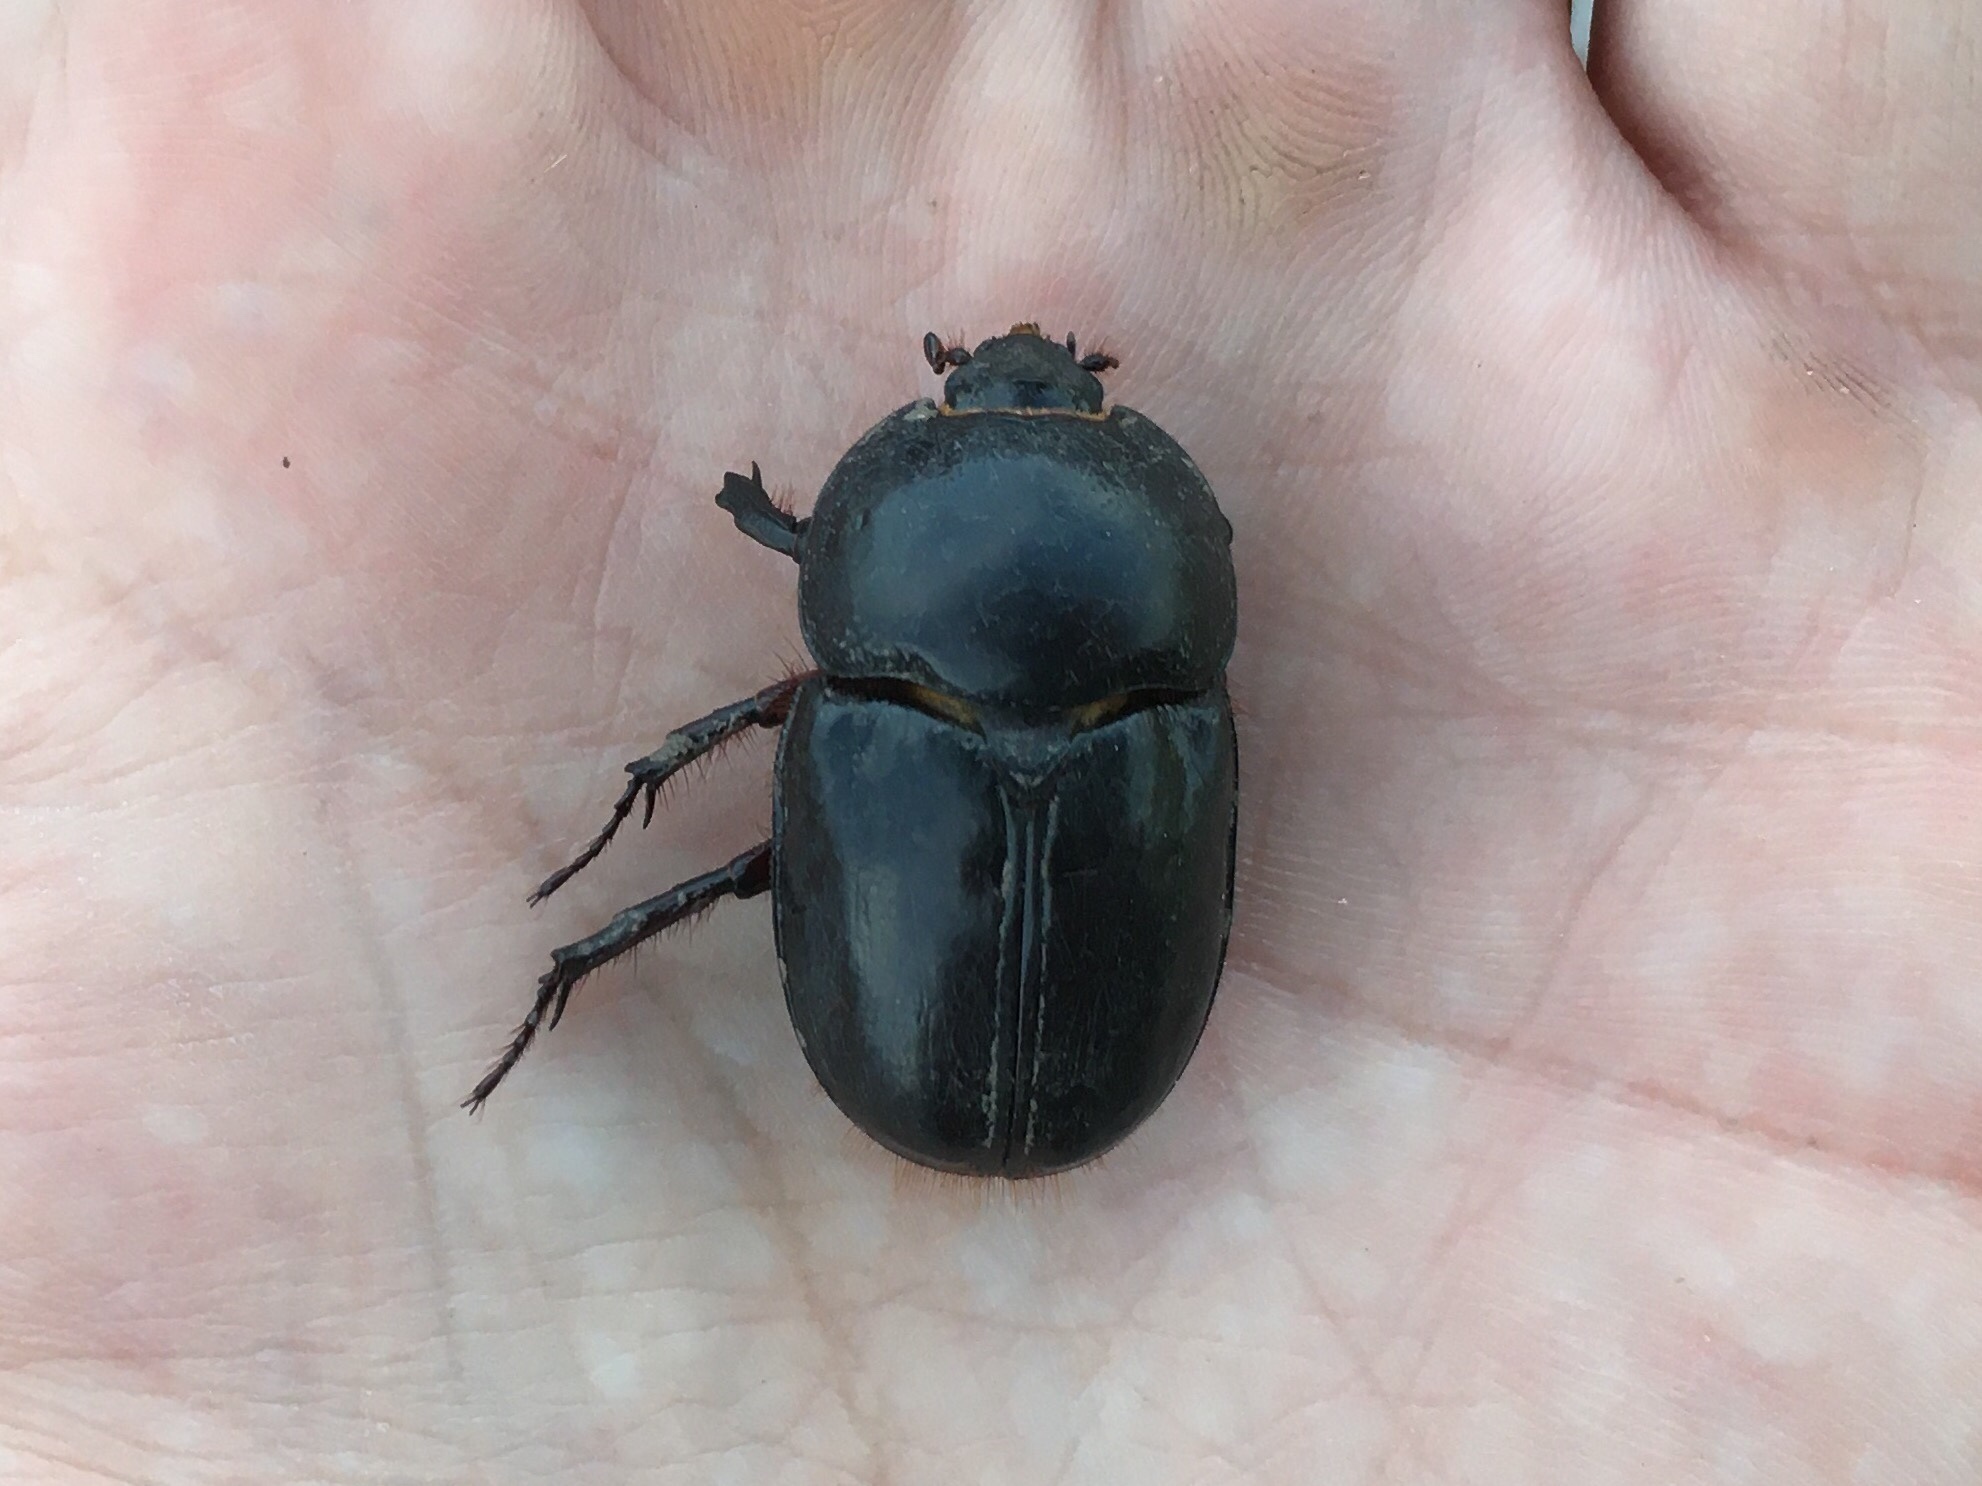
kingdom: Animalia
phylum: Arthropoda
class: Insecta
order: Coleoptera
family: Scarabaeidae
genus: Diloboderus
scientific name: Diloboderus abderus
